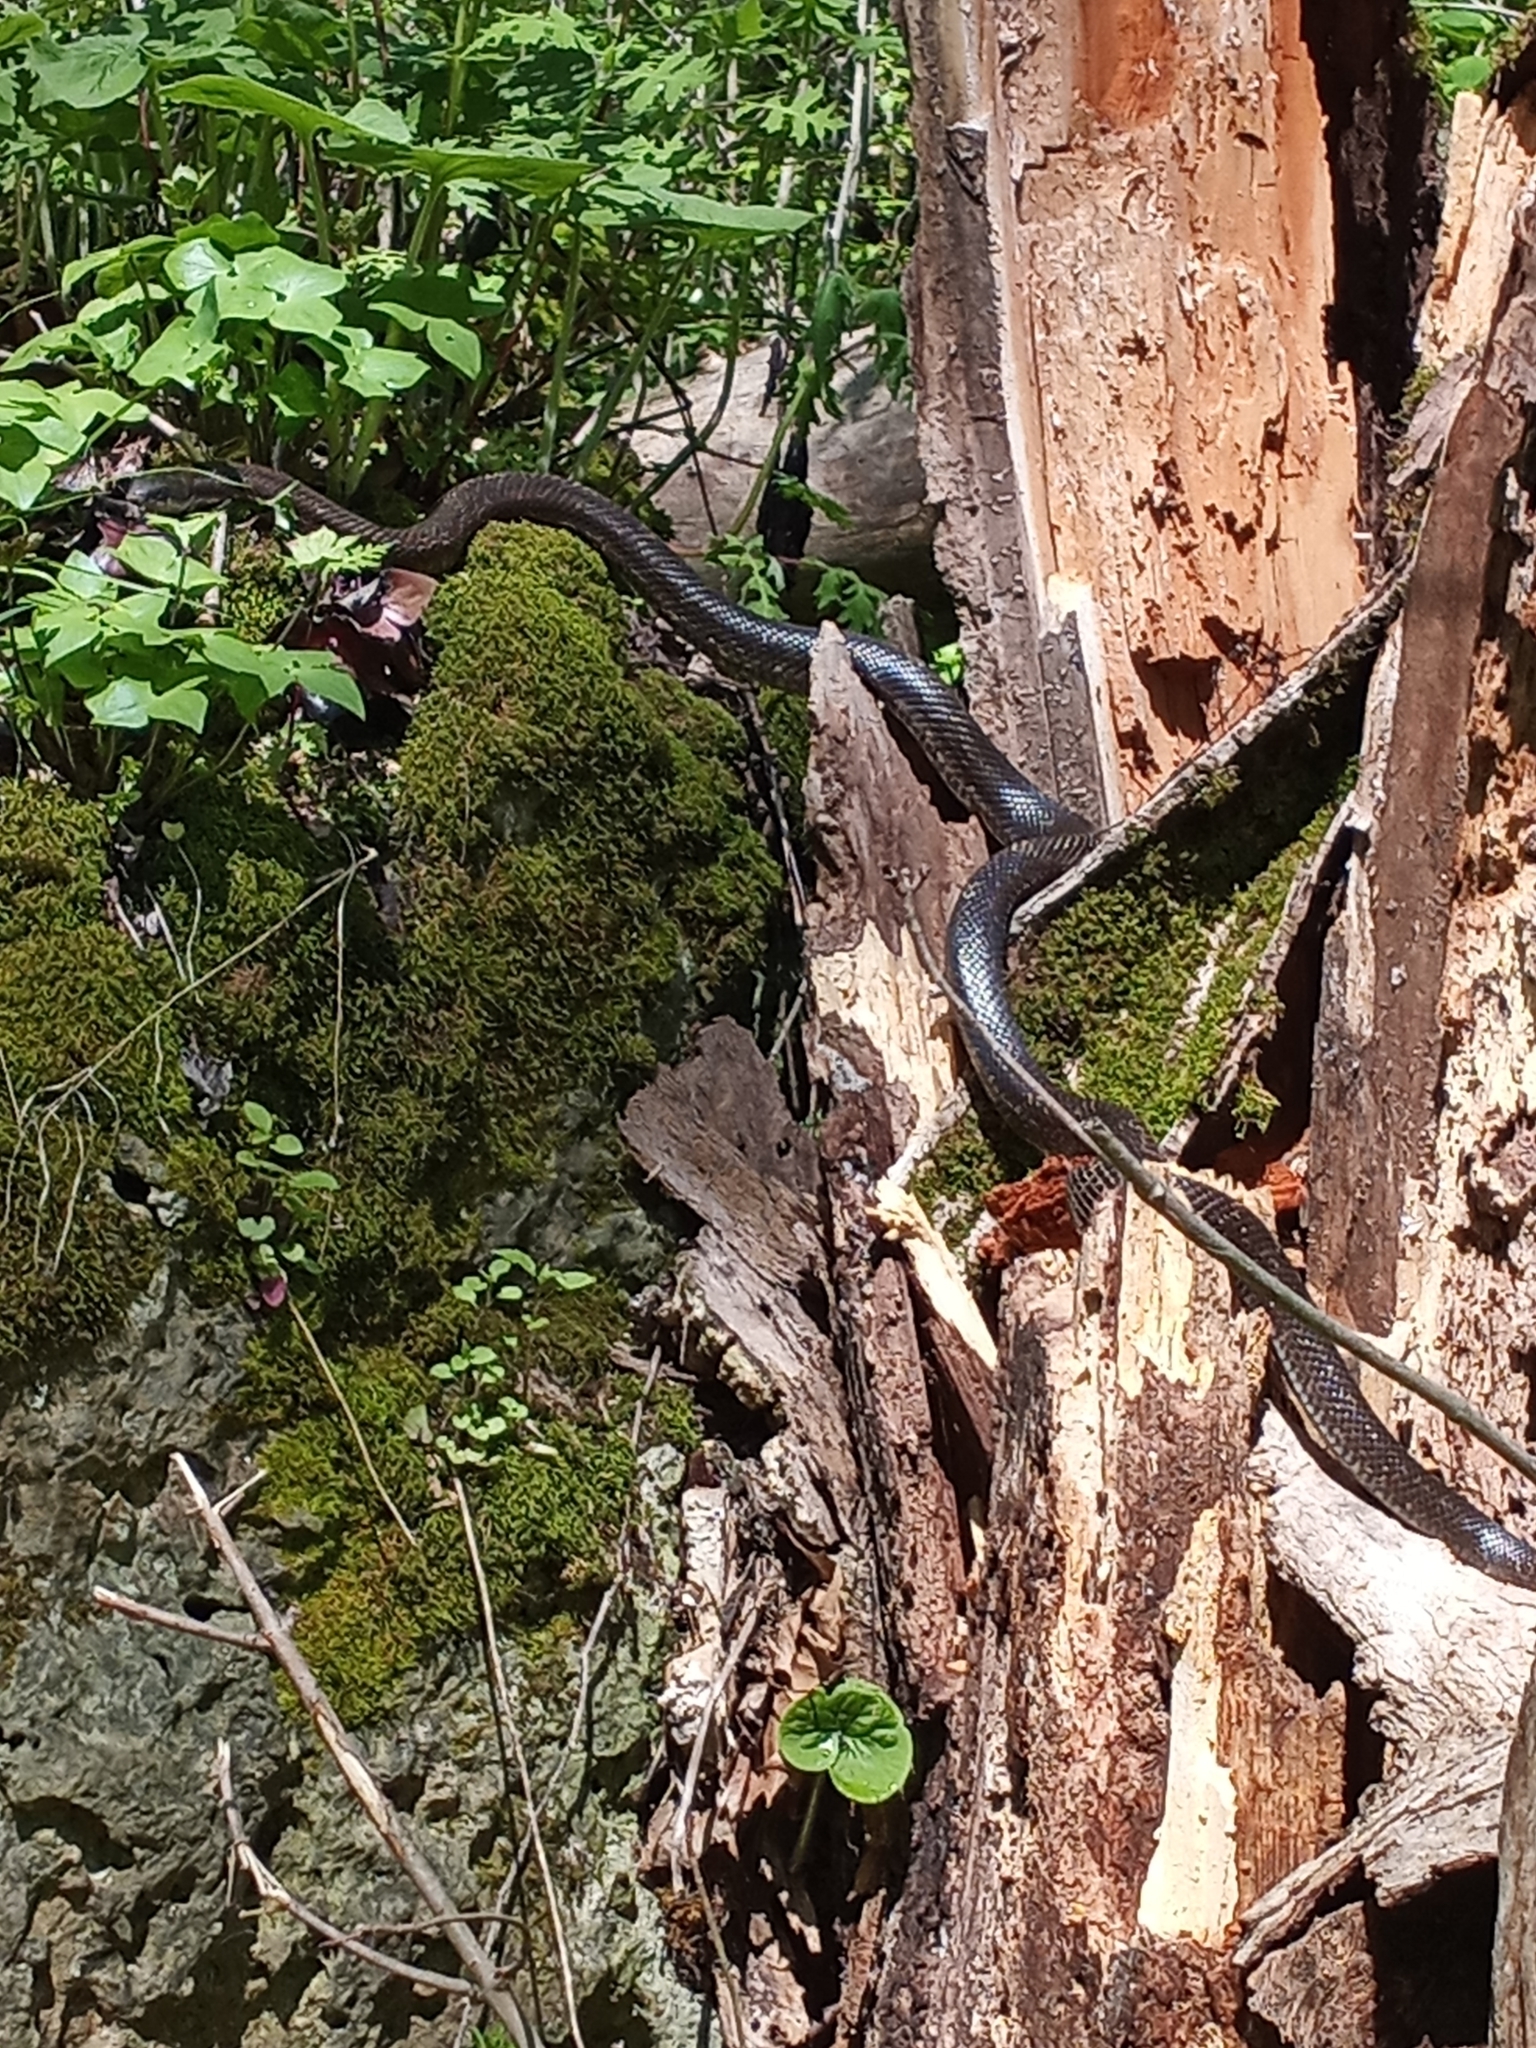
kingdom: Animalia
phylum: Chordata
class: Squamata
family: Colubridae
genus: Pantherophis
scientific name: Pantherophis spiloides
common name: Gray rat snake
